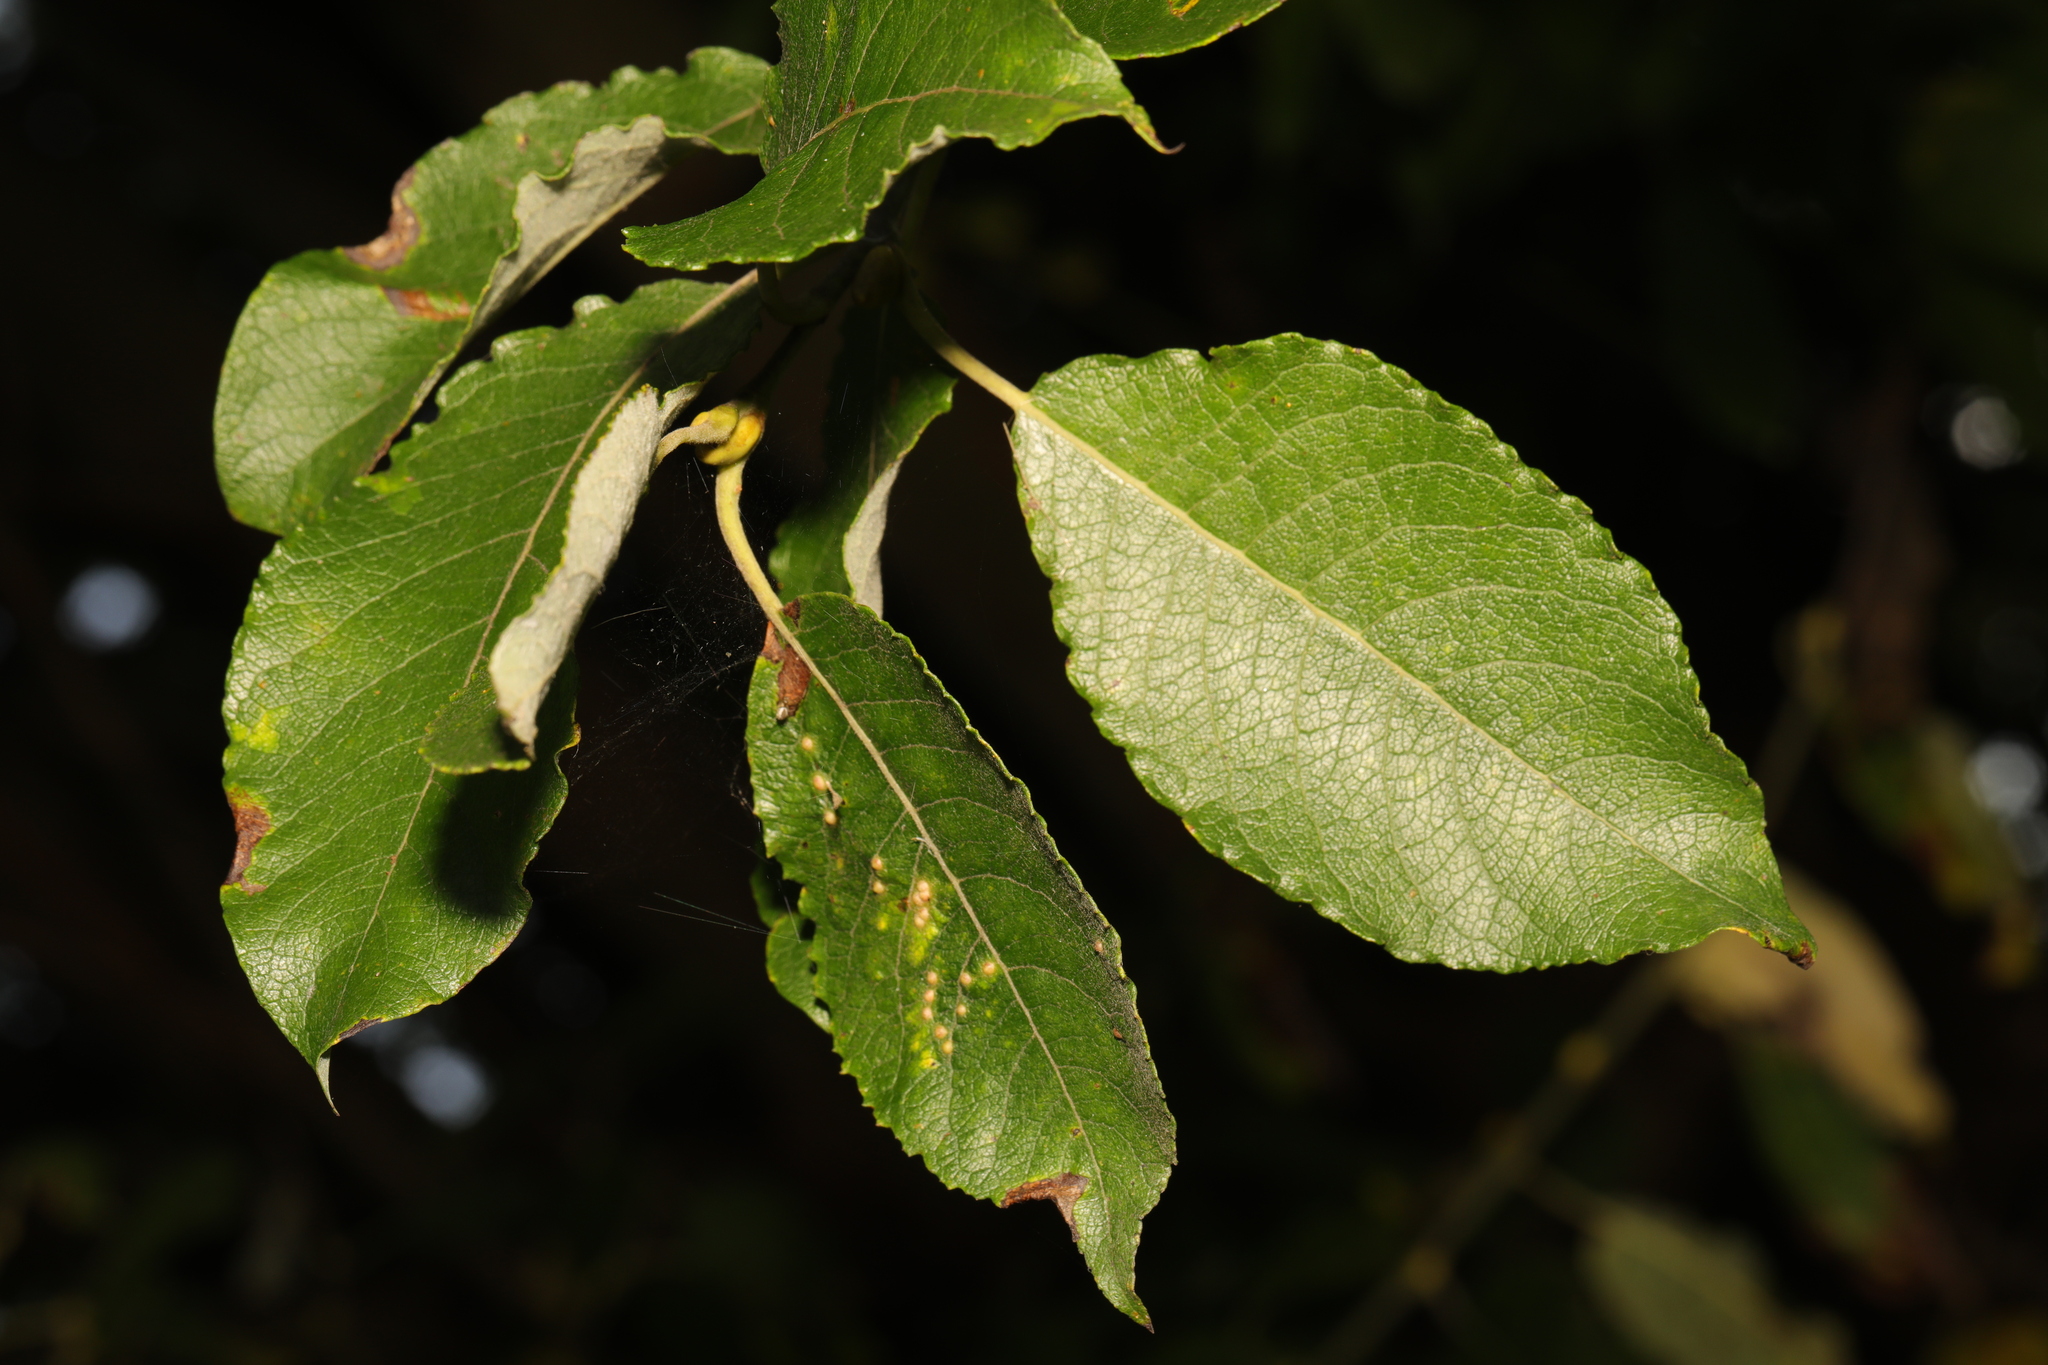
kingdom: Plantae
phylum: Tracheophyta
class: Magnoliopsida
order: Malpighiales
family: Salicaceae
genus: Salix
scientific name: Salix caprea
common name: Goat willow
